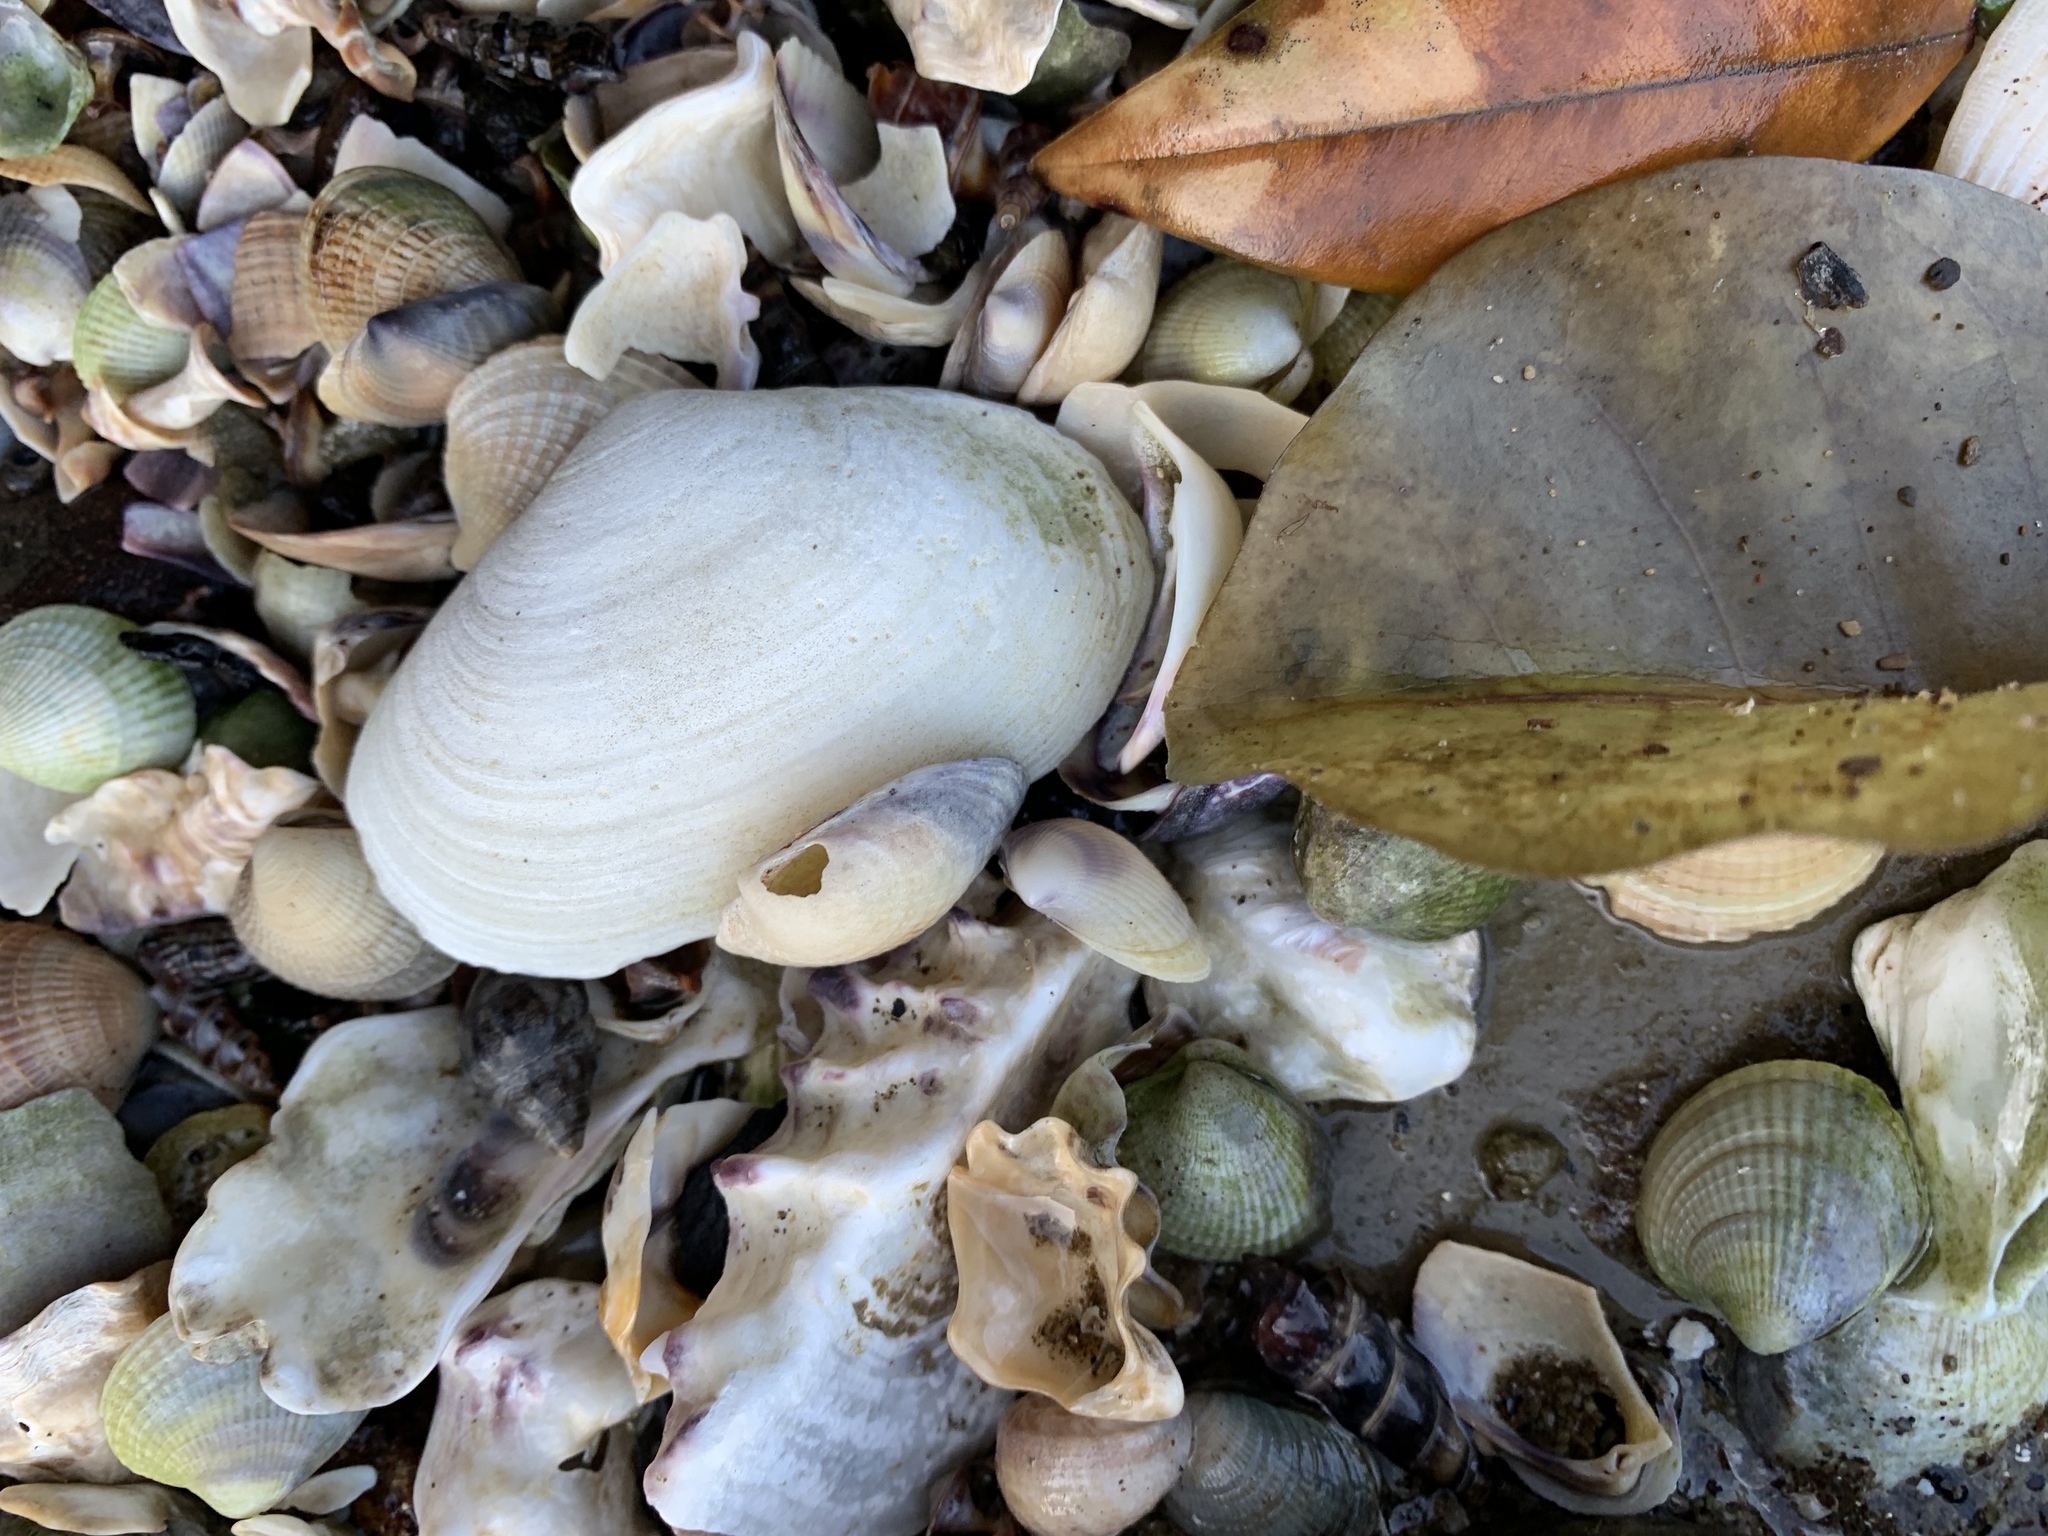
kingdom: Animalia
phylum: Mollusca
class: Bivalvia
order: Venerida
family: Mesodesmatidae
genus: Paphies
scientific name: Paphies australis
